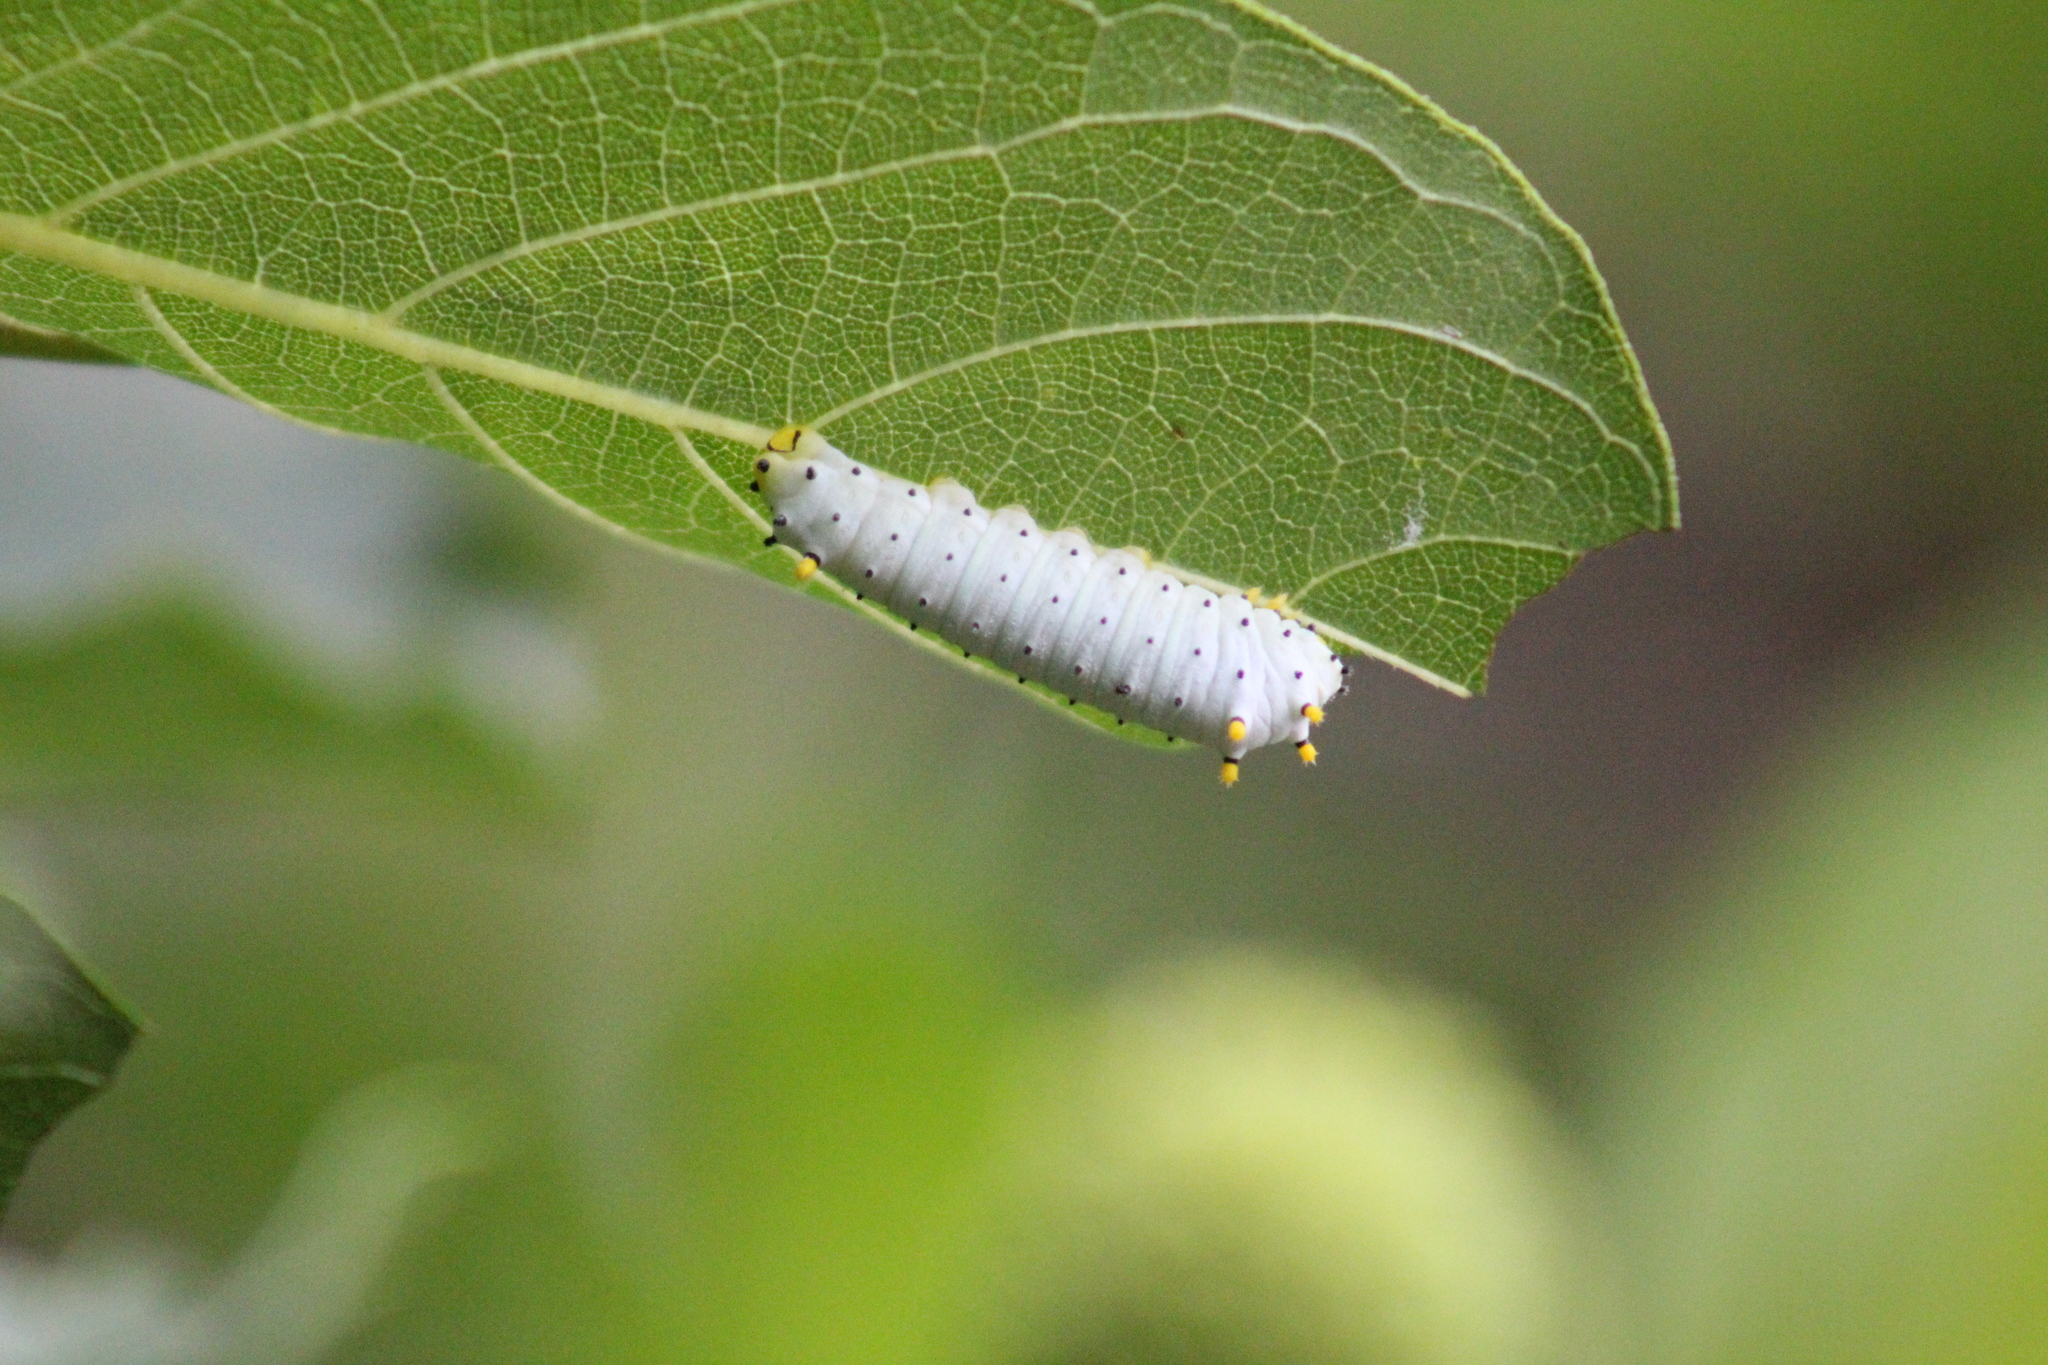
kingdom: Animalia
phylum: Arthropoda
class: Insecta
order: Lepidoptera
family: Saturniidae
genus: Callosamia
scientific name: Callosamia promethea
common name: Promethea silkmoth
